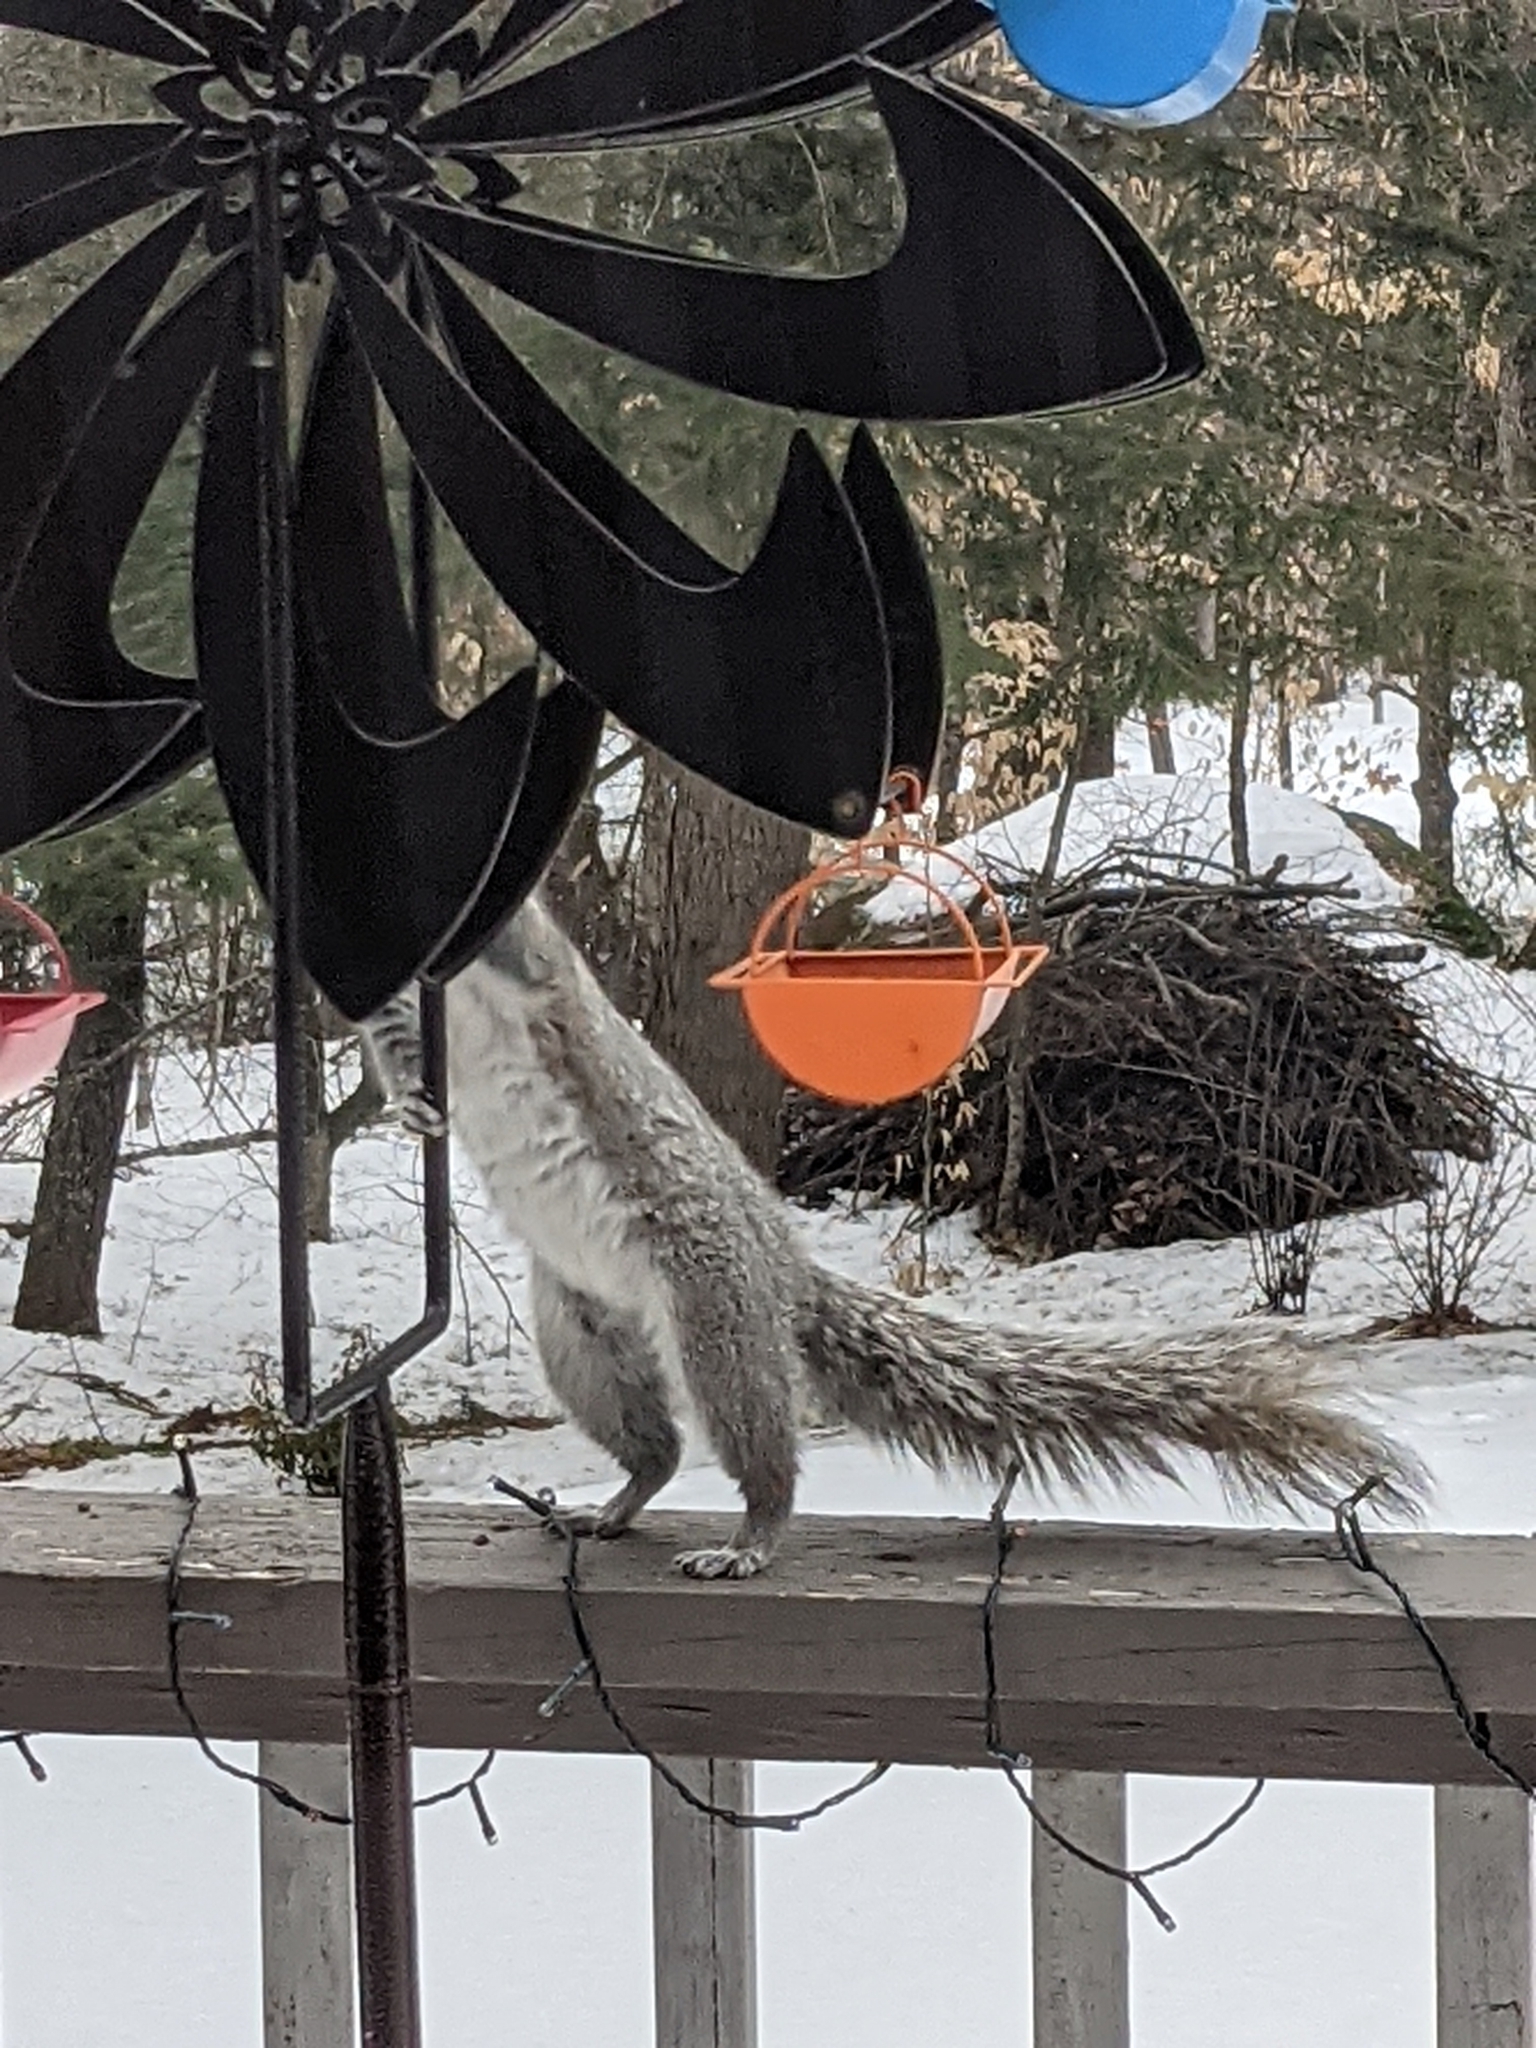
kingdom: Animalia
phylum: Chordata
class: Mammalia
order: Rodentia
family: Sciuridae
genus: Sciurus
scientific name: Sciurus carolinensis
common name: Eastern gray squirrel
